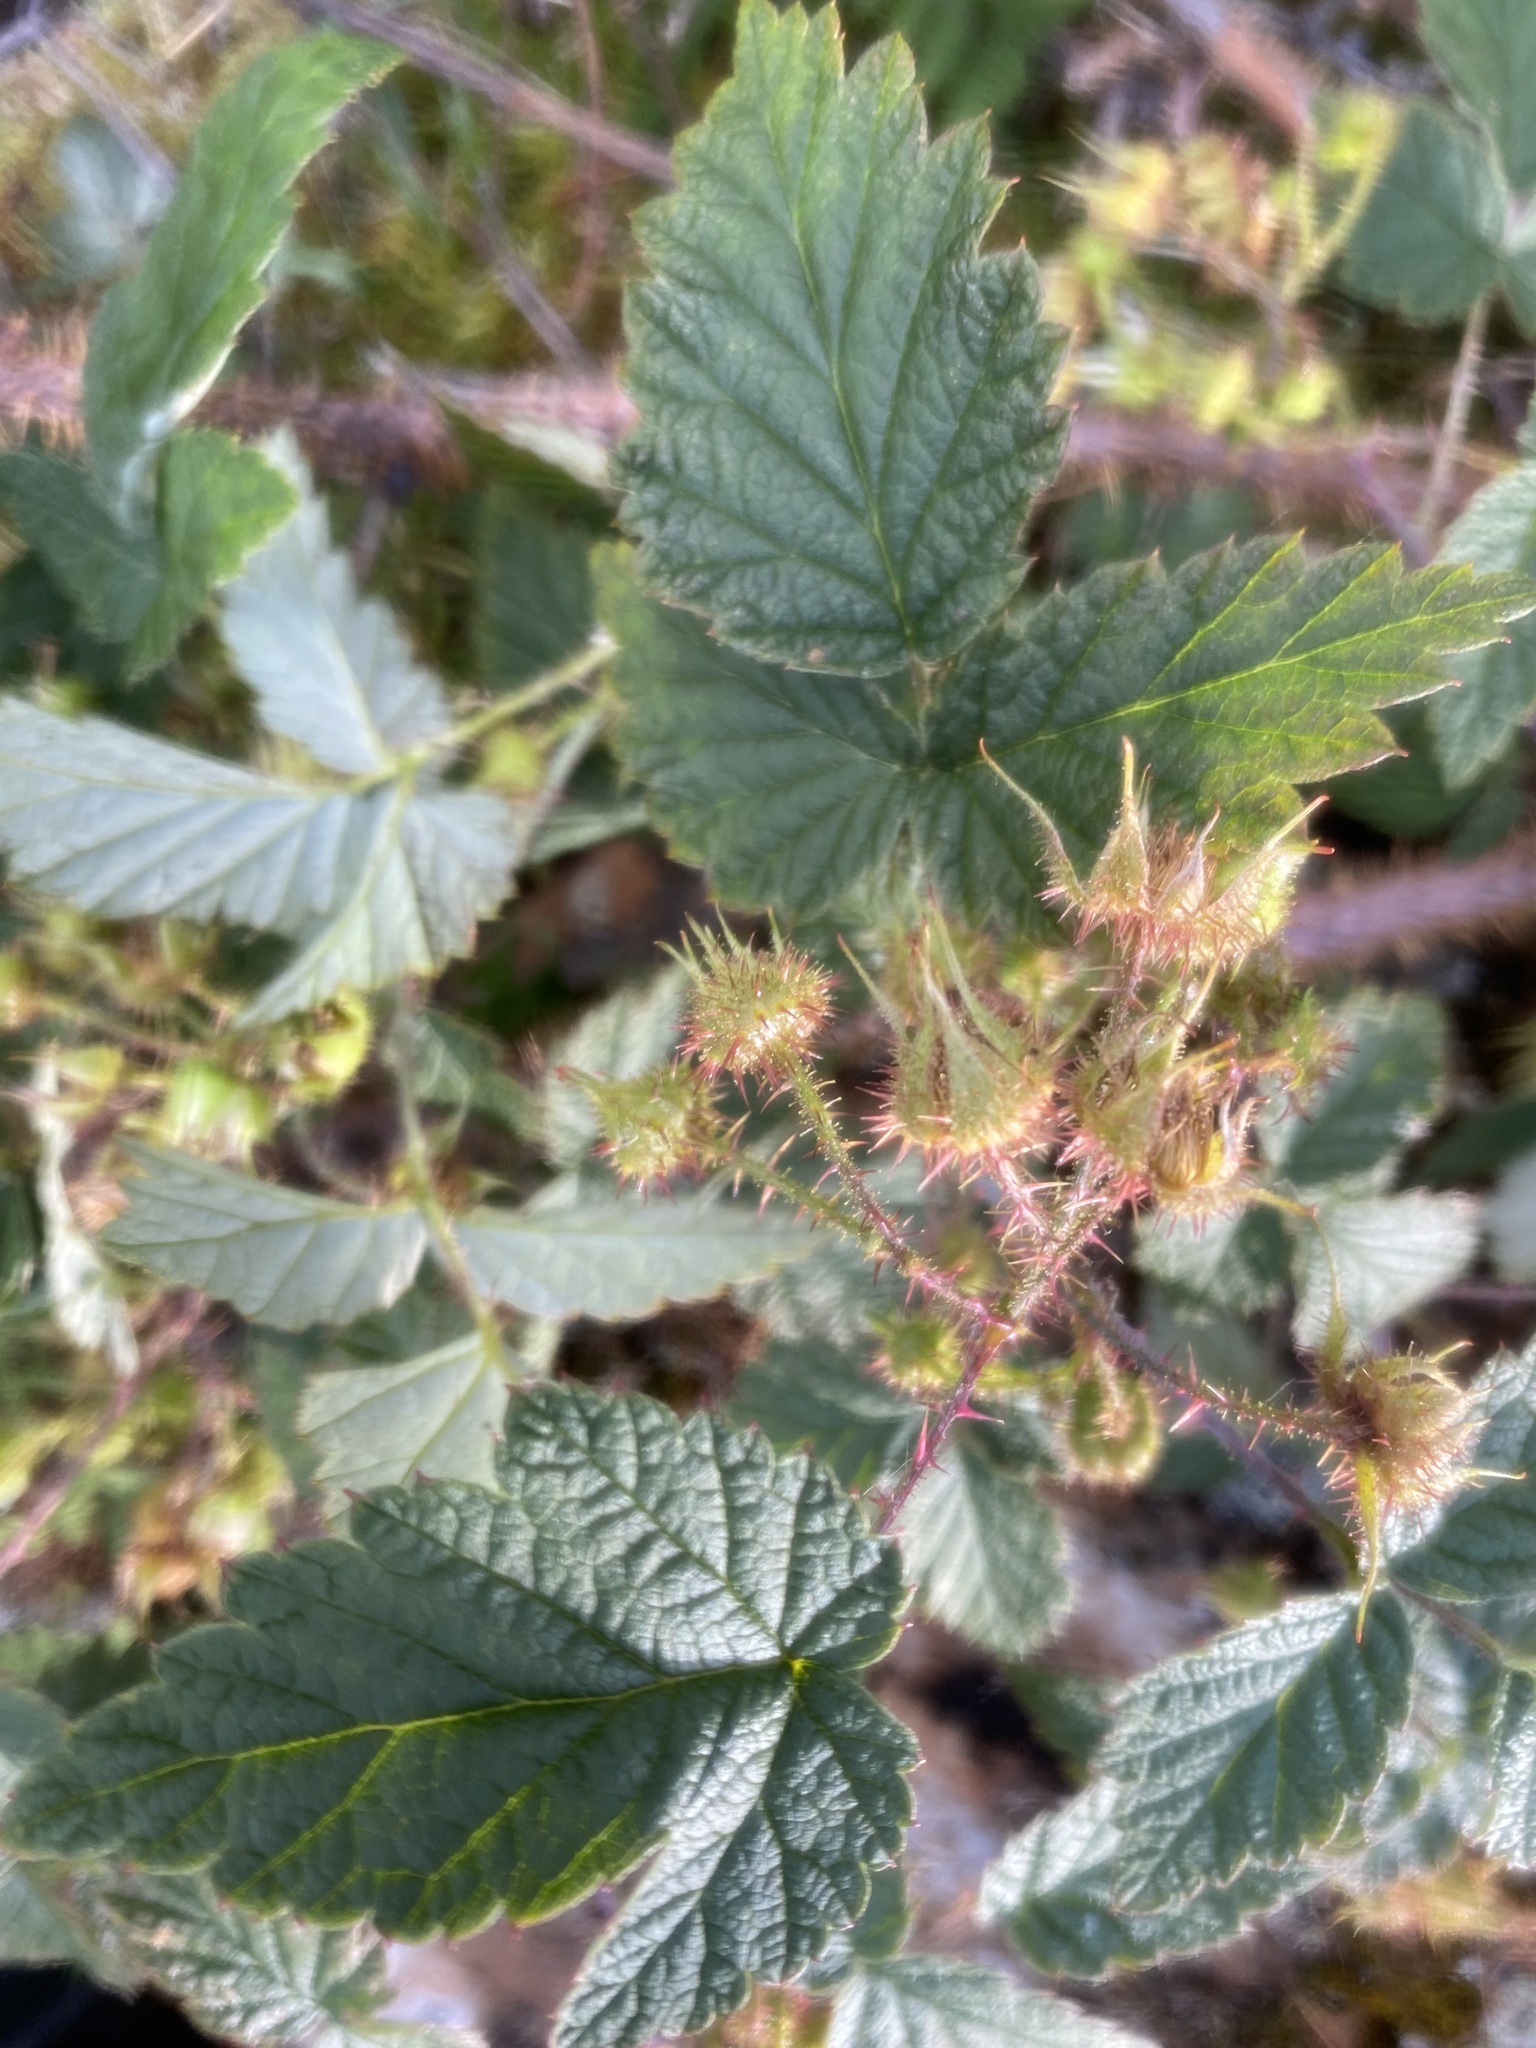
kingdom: Plantae
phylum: Tracheophyta
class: Magnoliopsida
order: Rosales
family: Rosaceae
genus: Rubus
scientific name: Rubus sachalinensis
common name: Red raspberry
